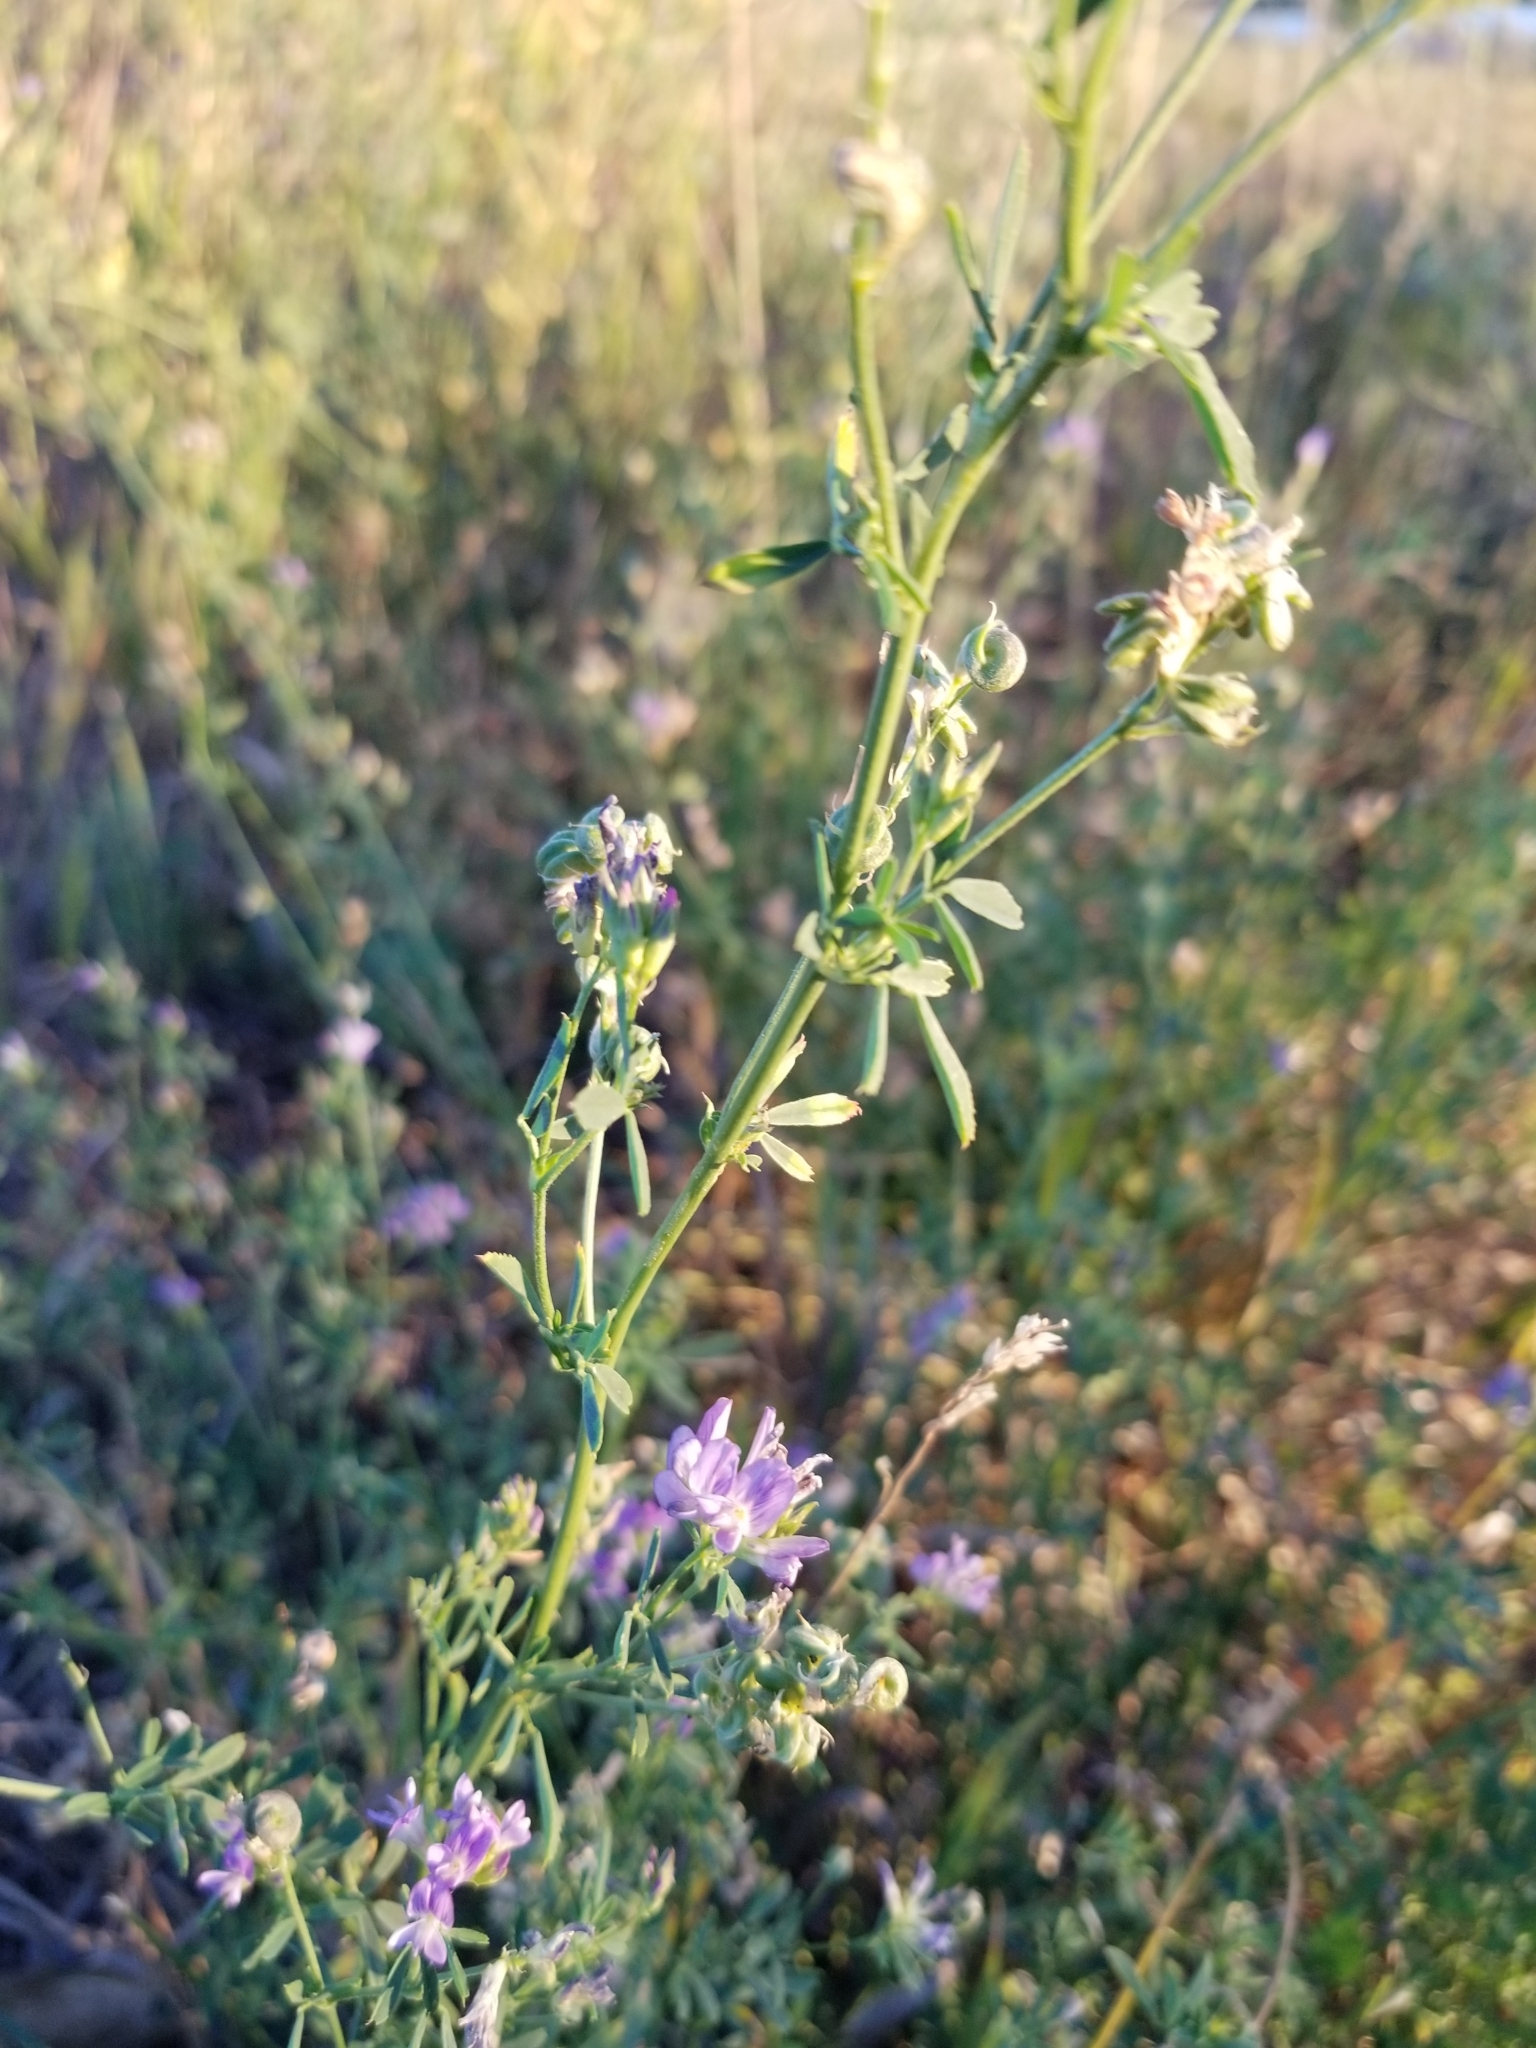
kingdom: Plantae
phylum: Tracheophyta
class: Magnoliopsida
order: Fabales
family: Fabaceae
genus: Medicago
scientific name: Medicago sativa
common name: Alfalfa
